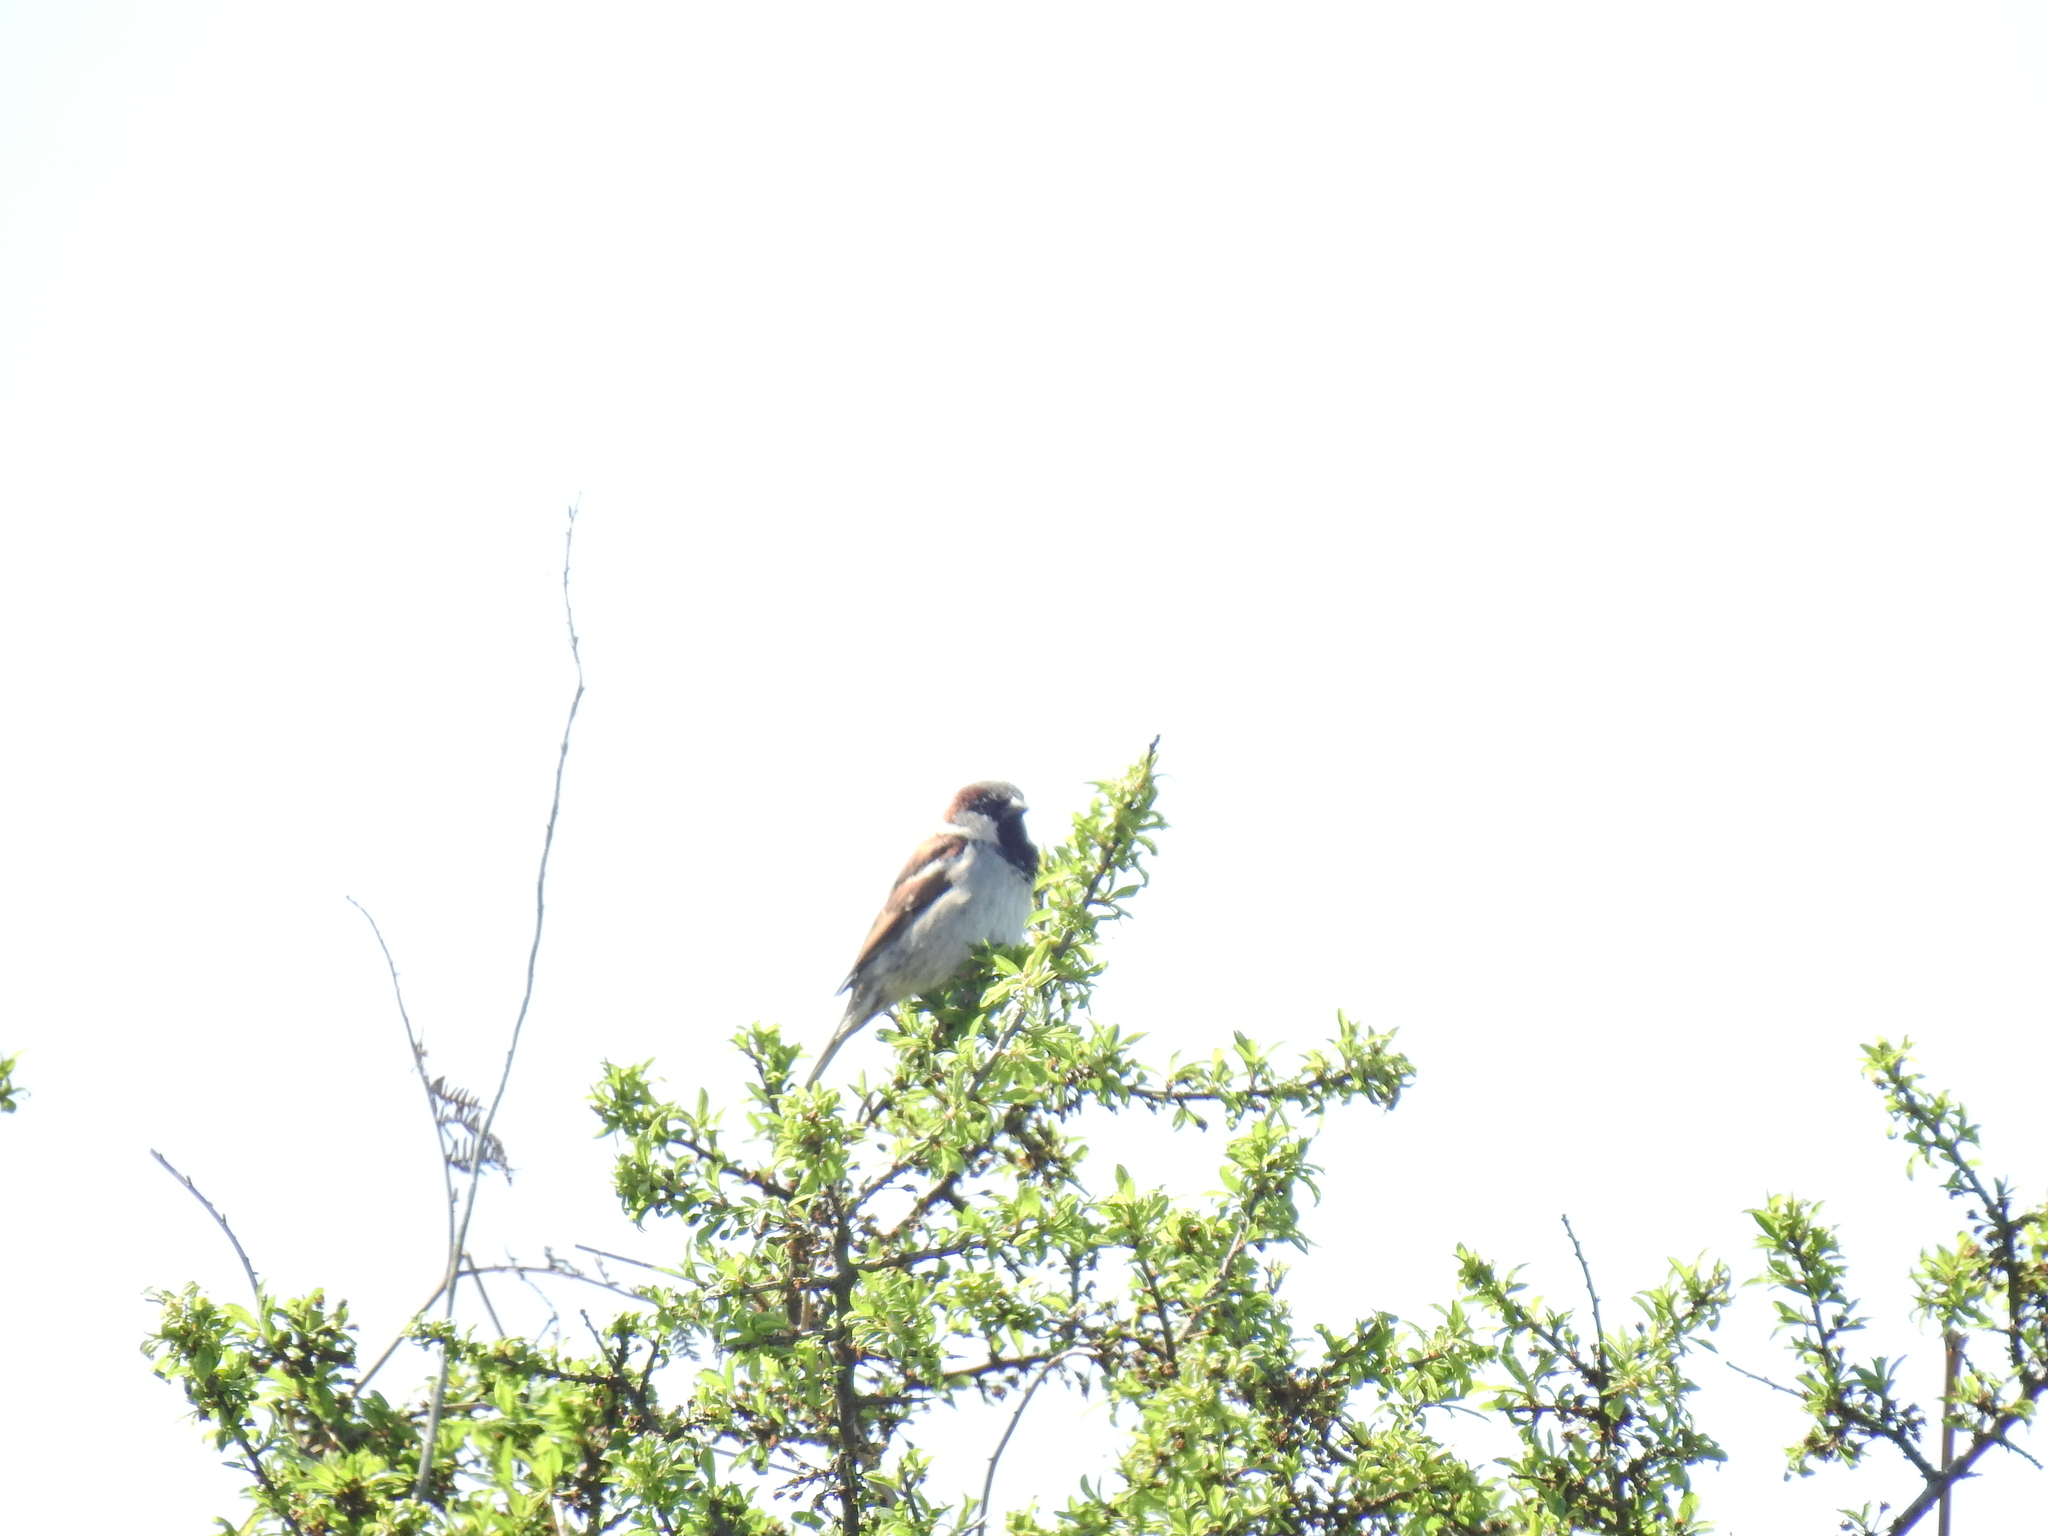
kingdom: Animalia
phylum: Chordata
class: Aves
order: Passeriformes
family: Passeridae
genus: Passer
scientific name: Passer domesticus
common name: House sparrow
